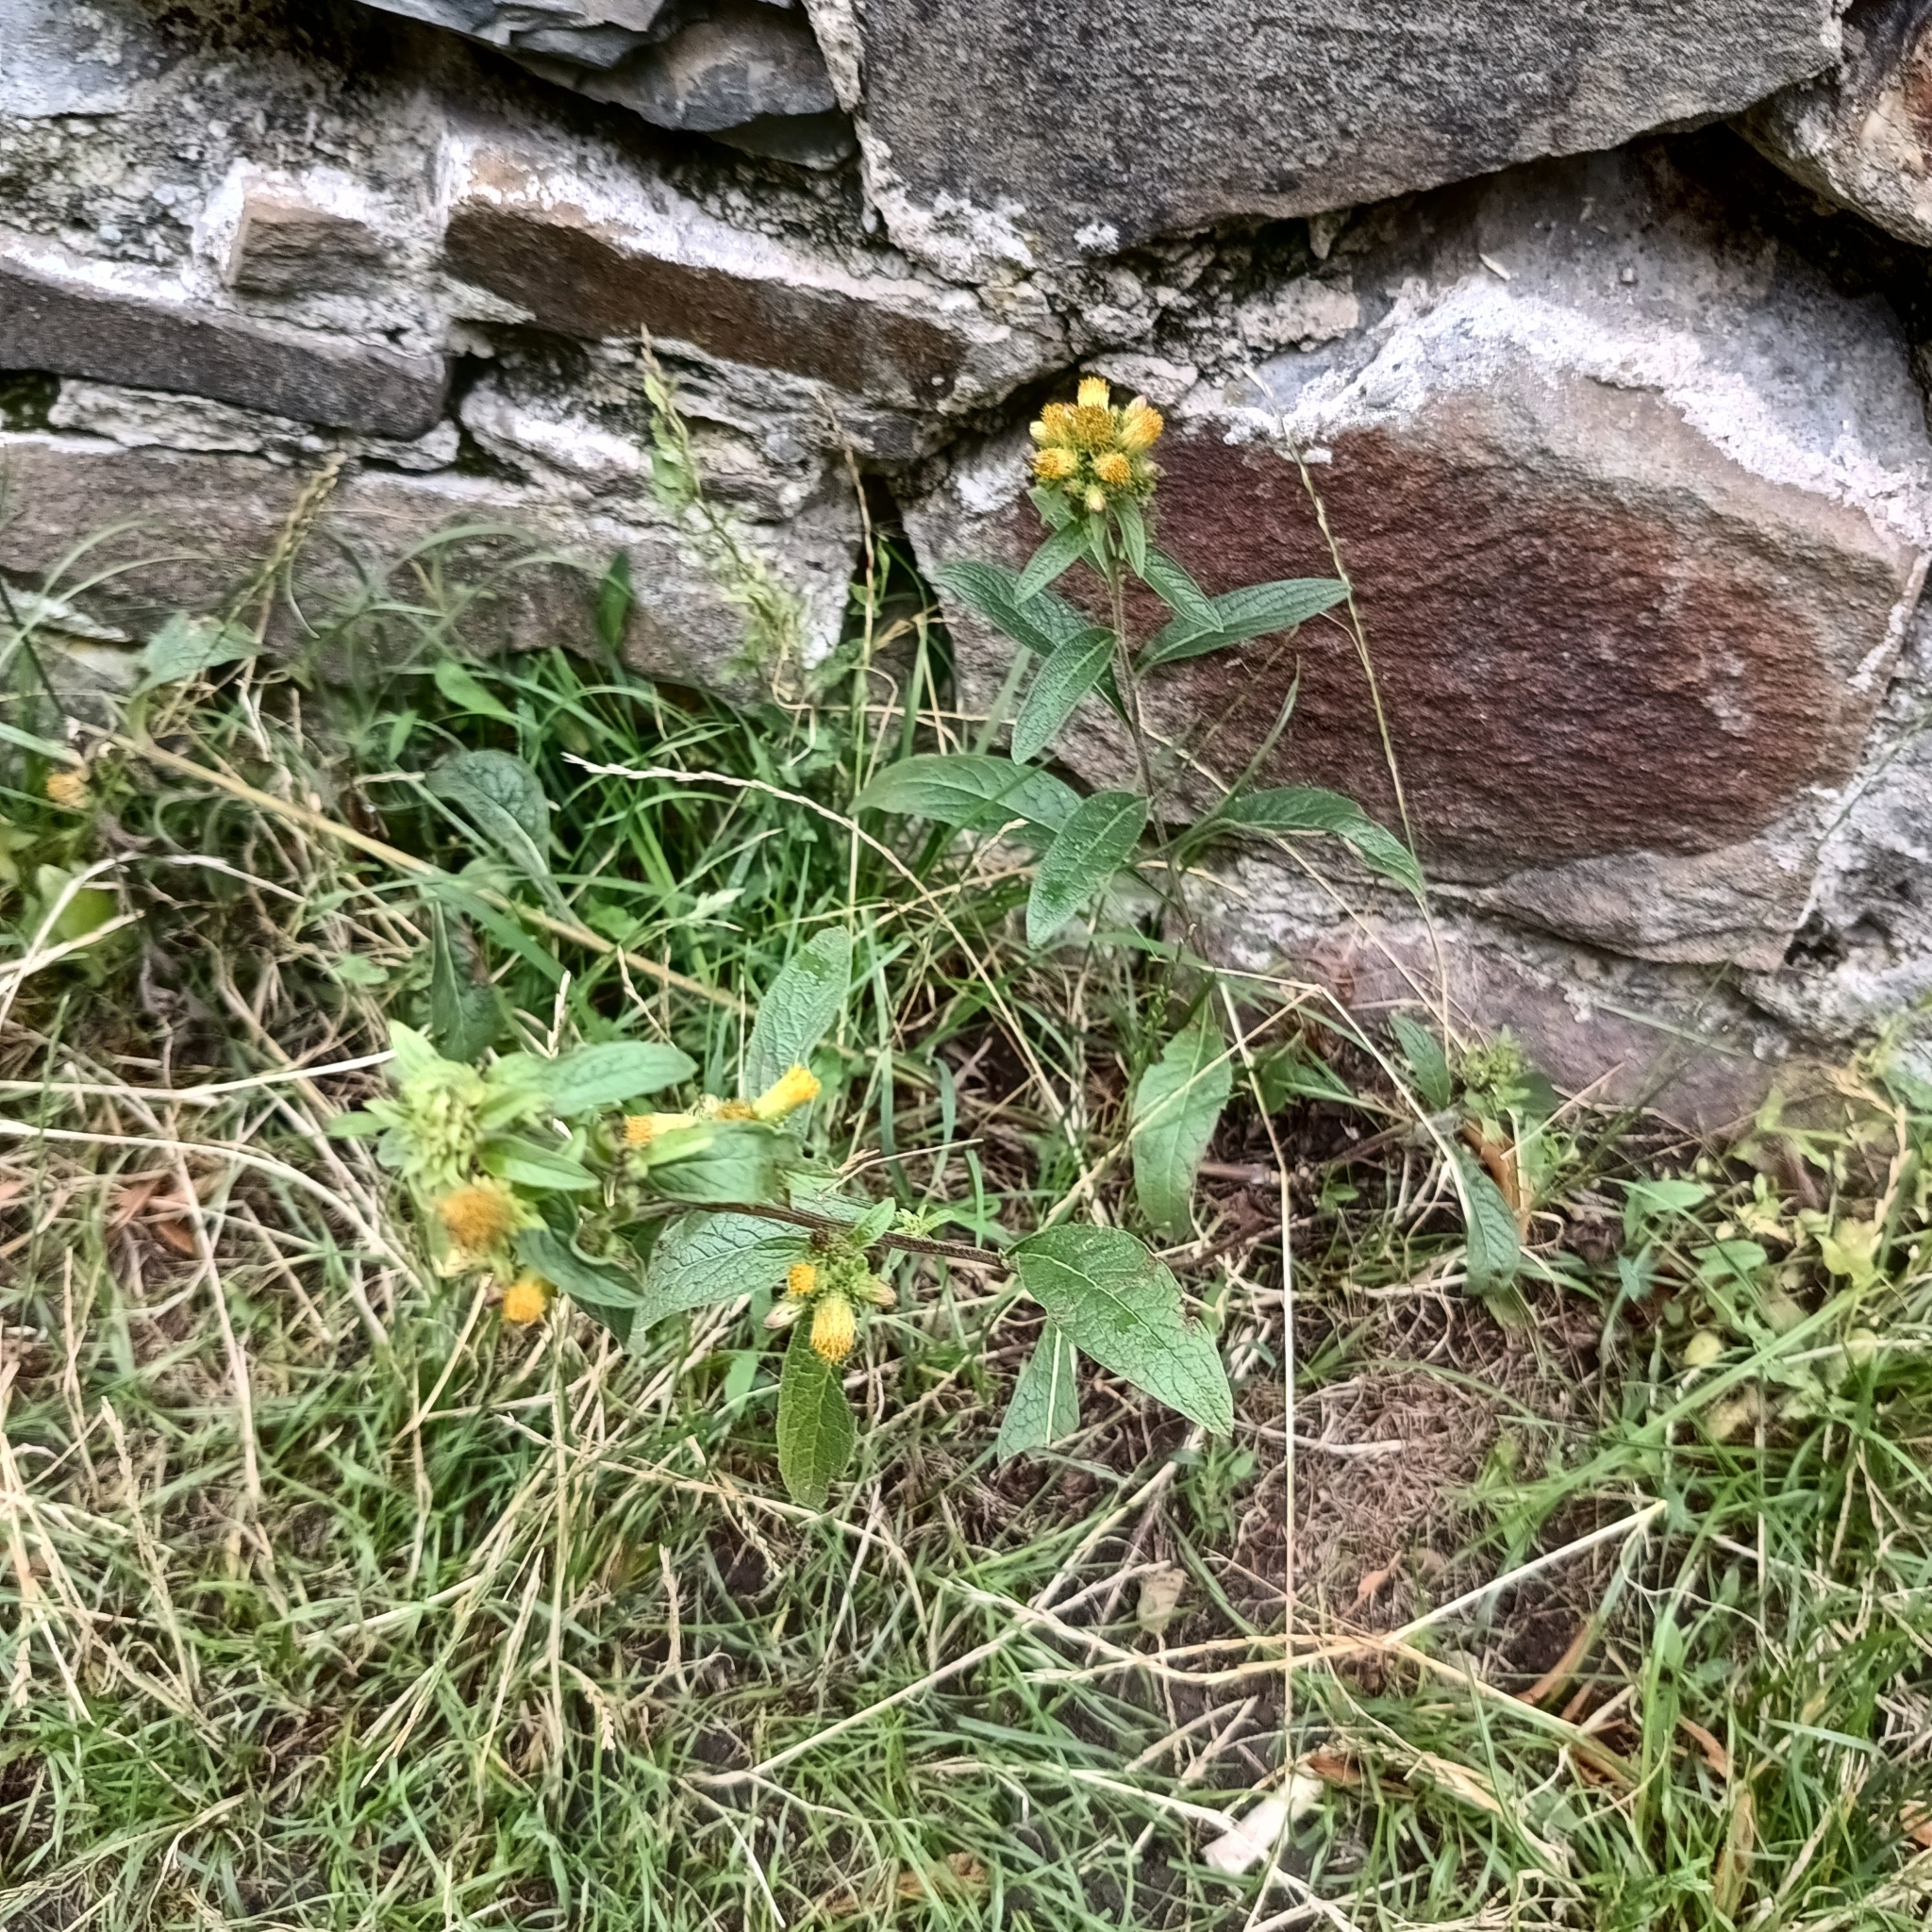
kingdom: Plantae
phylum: Tracheophyta
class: Magnoliopsida
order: Asterales
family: Asteraceae
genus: Pentanema
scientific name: Pentanema squarrosum
